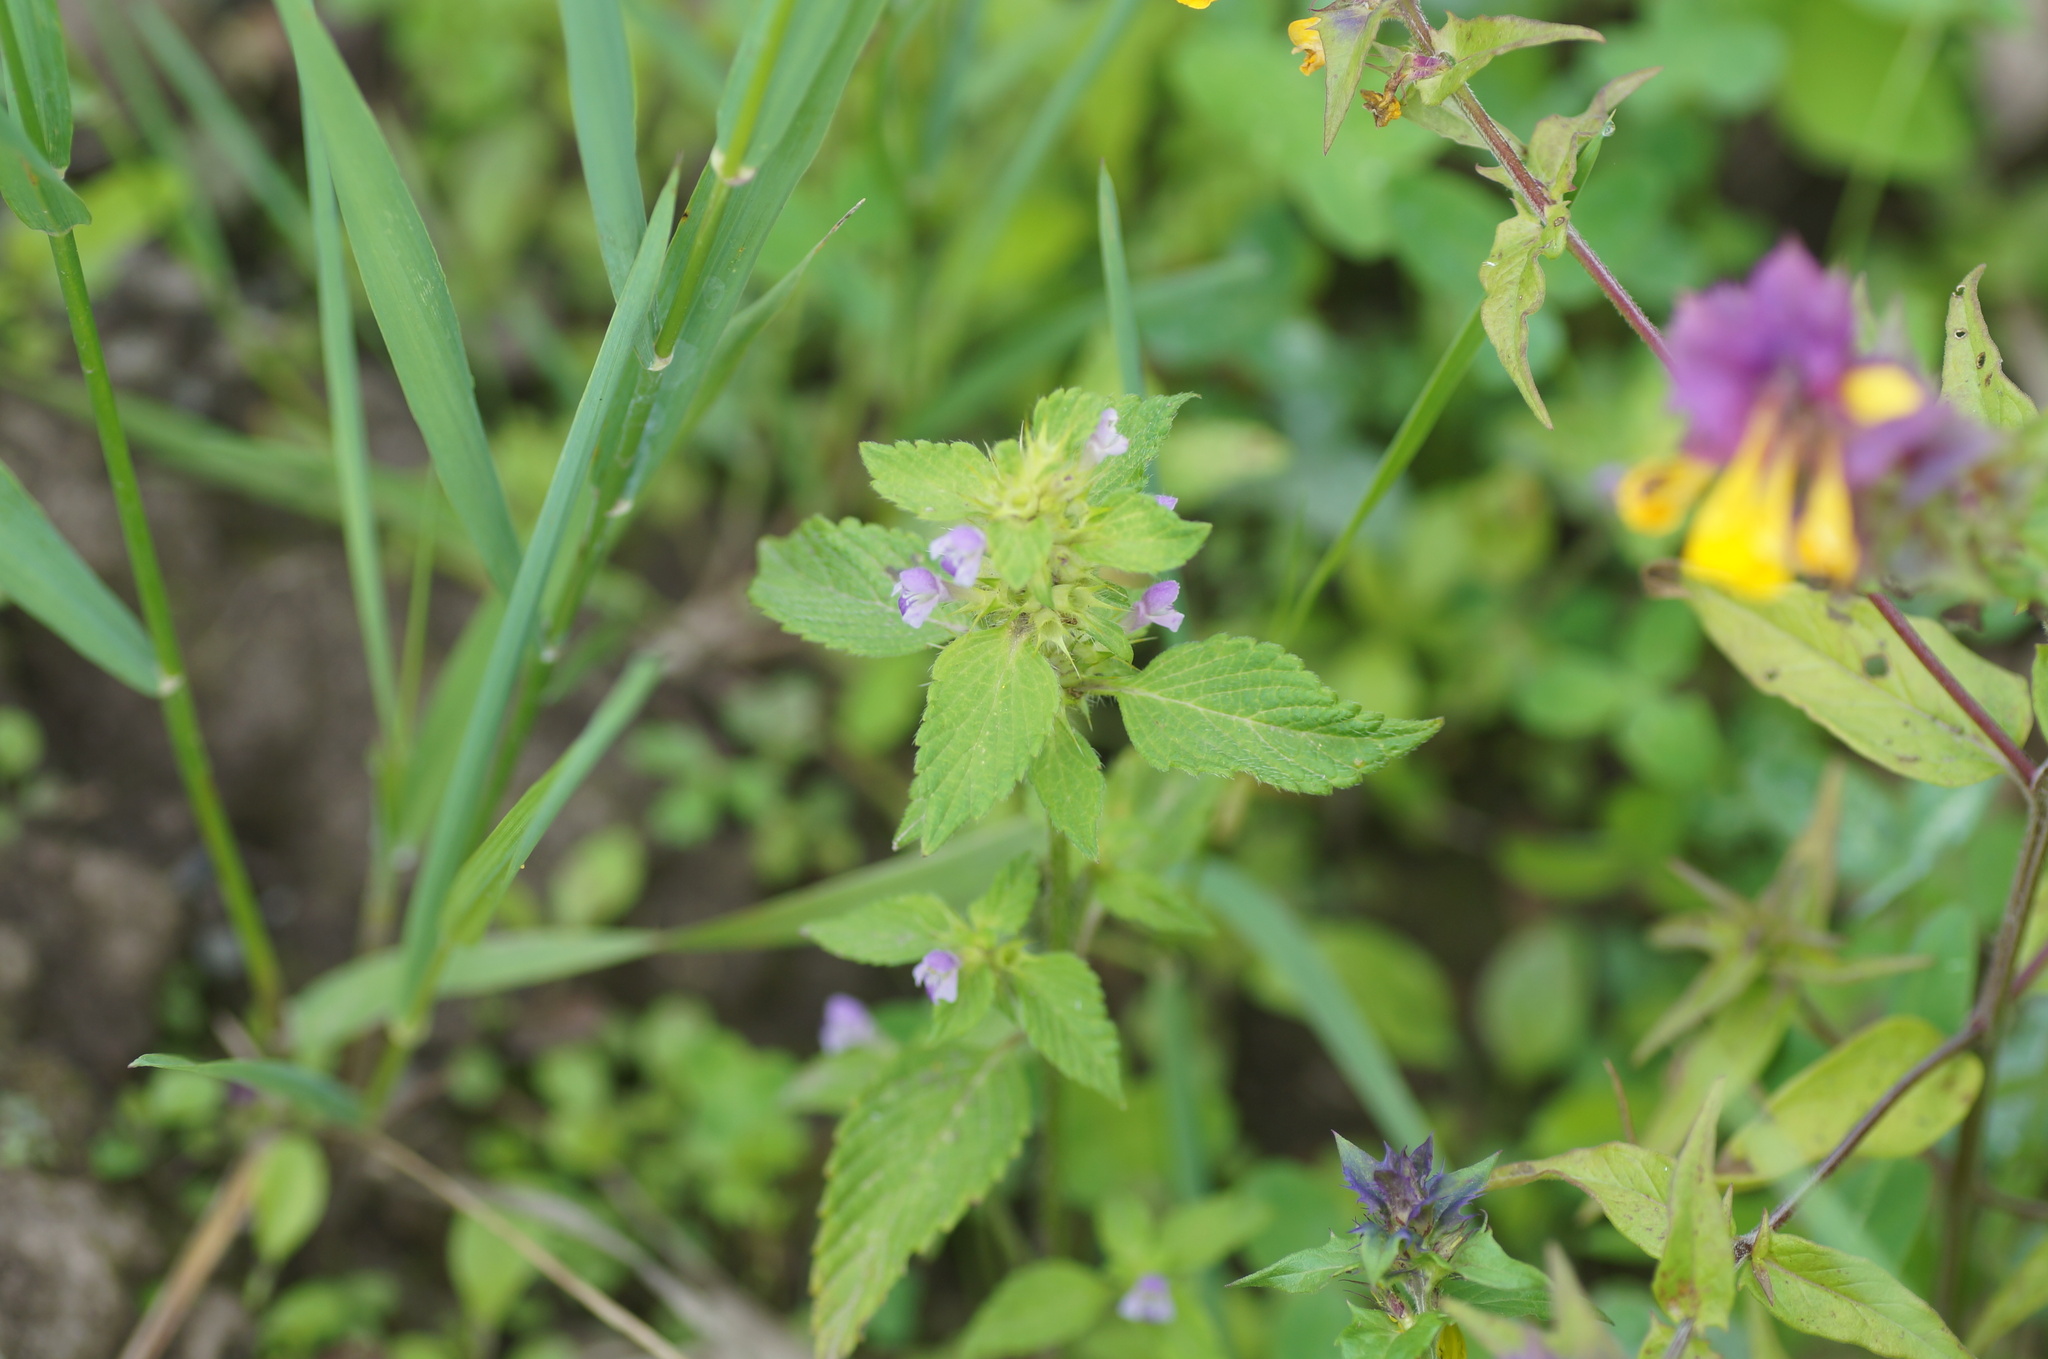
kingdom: Plantae
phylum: Tracheophyta
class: Magnoliopsida
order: Lamiales
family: Lamiaceae
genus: Galeopsis
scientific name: Galeopsis bifida
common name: Bifid hemp-nettle
